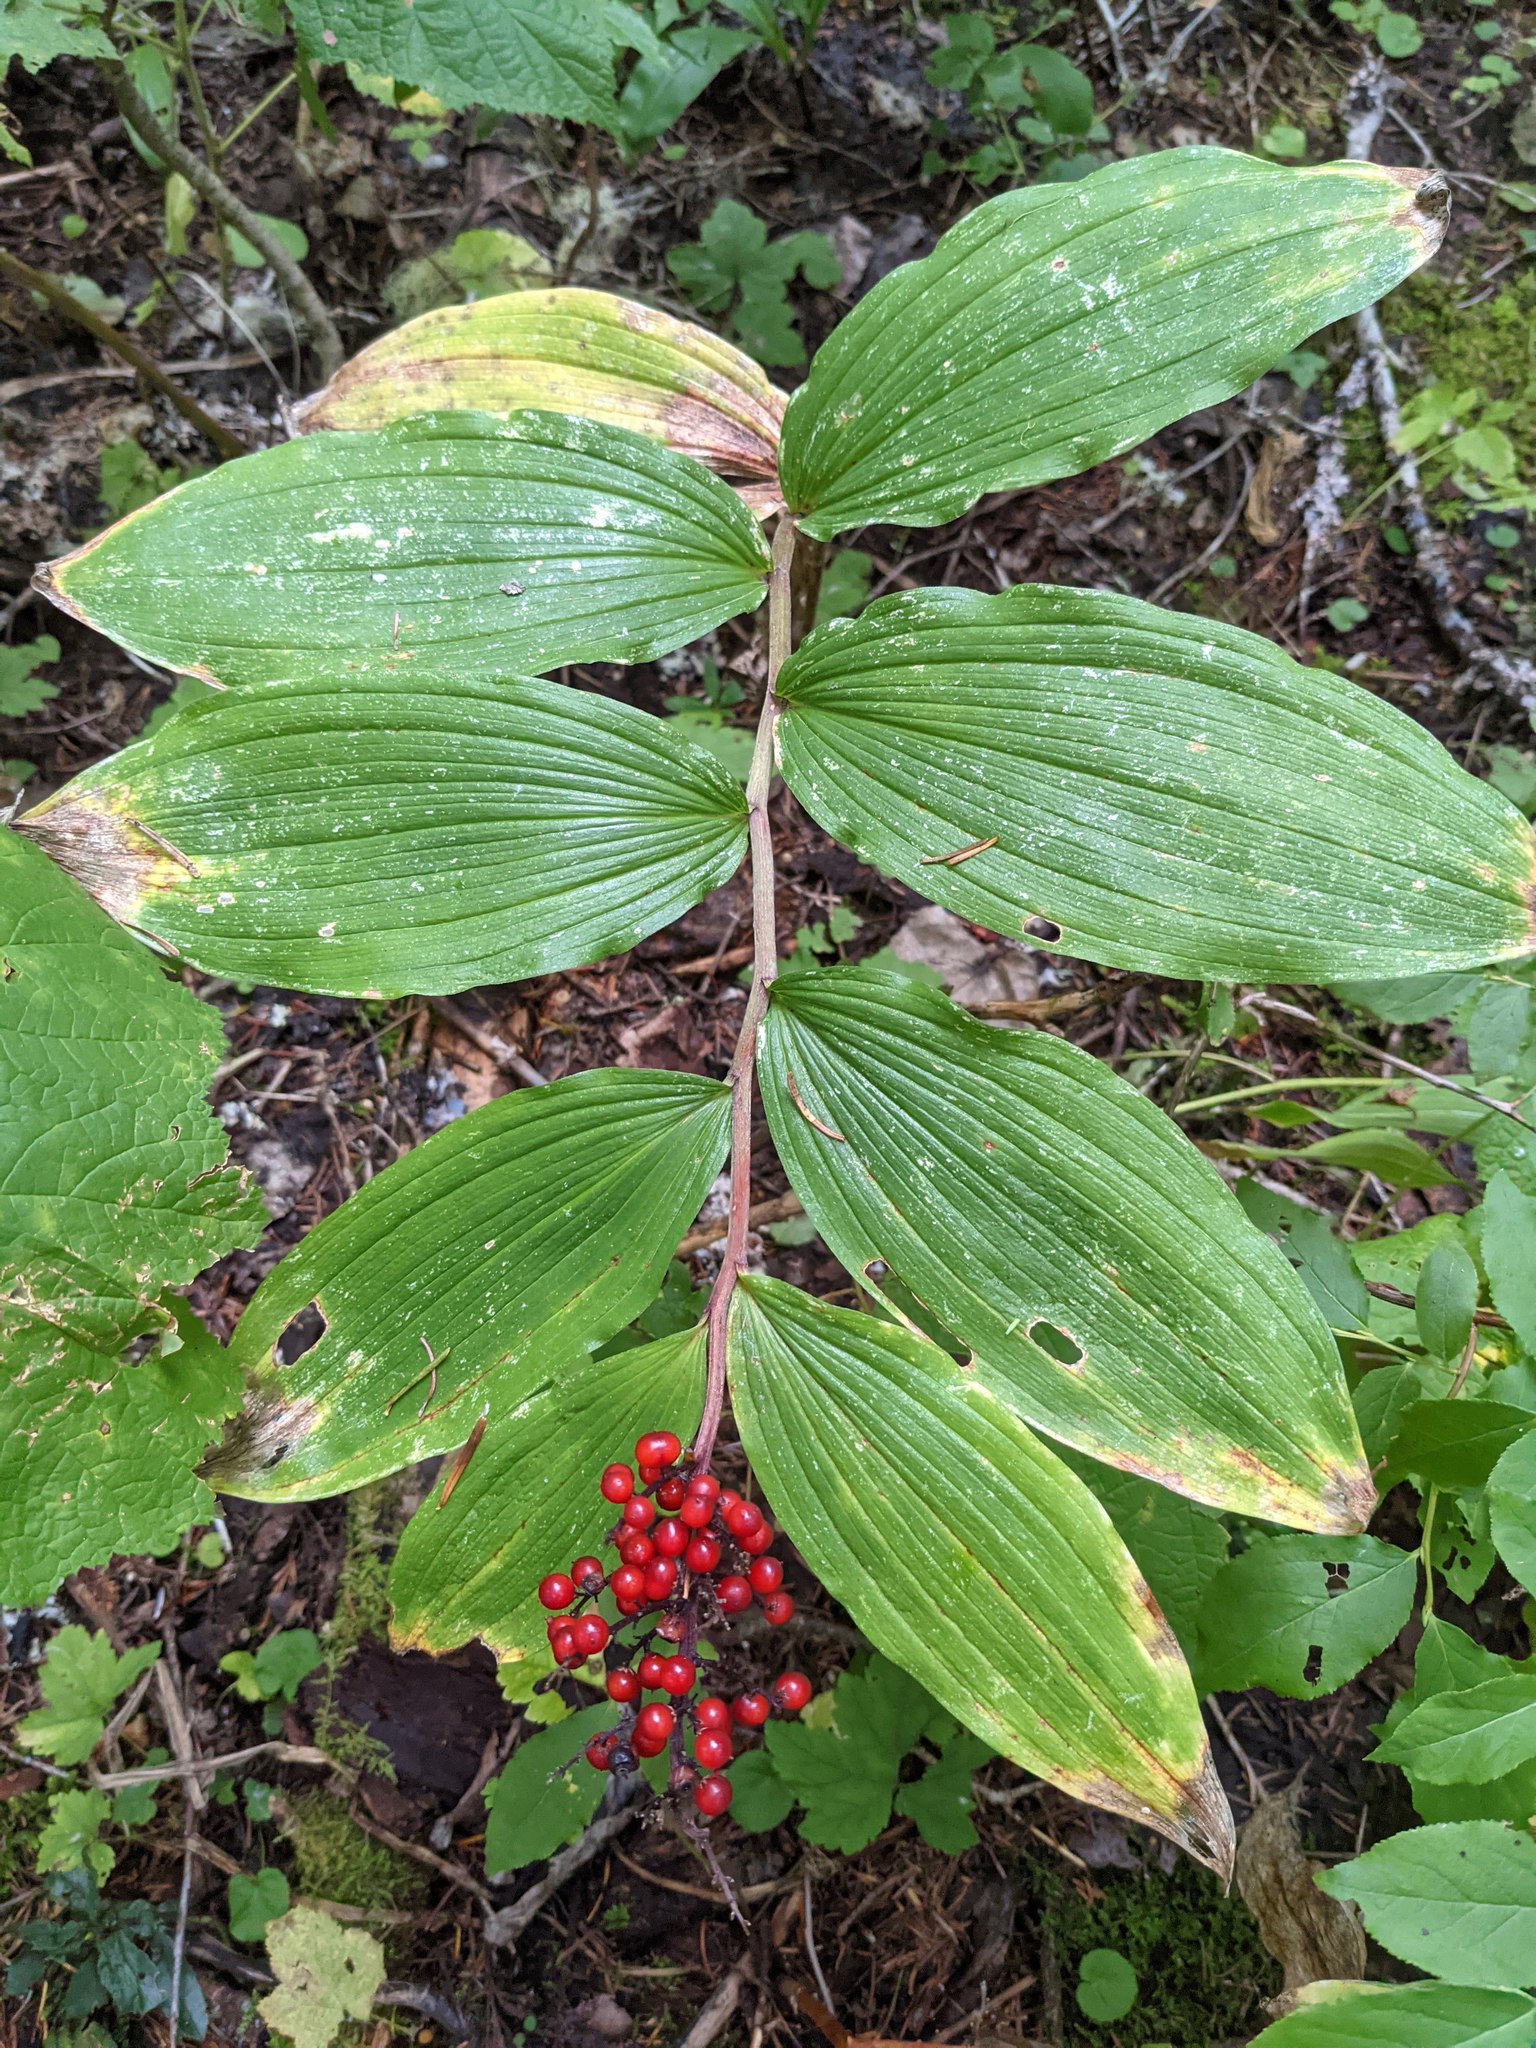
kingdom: Plantae
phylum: Tracheophyta
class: Liliopsida
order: Asparagales
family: Asparagaceae
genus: Maianthemum
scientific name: Maianthemum racemosum
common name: False spikenard
